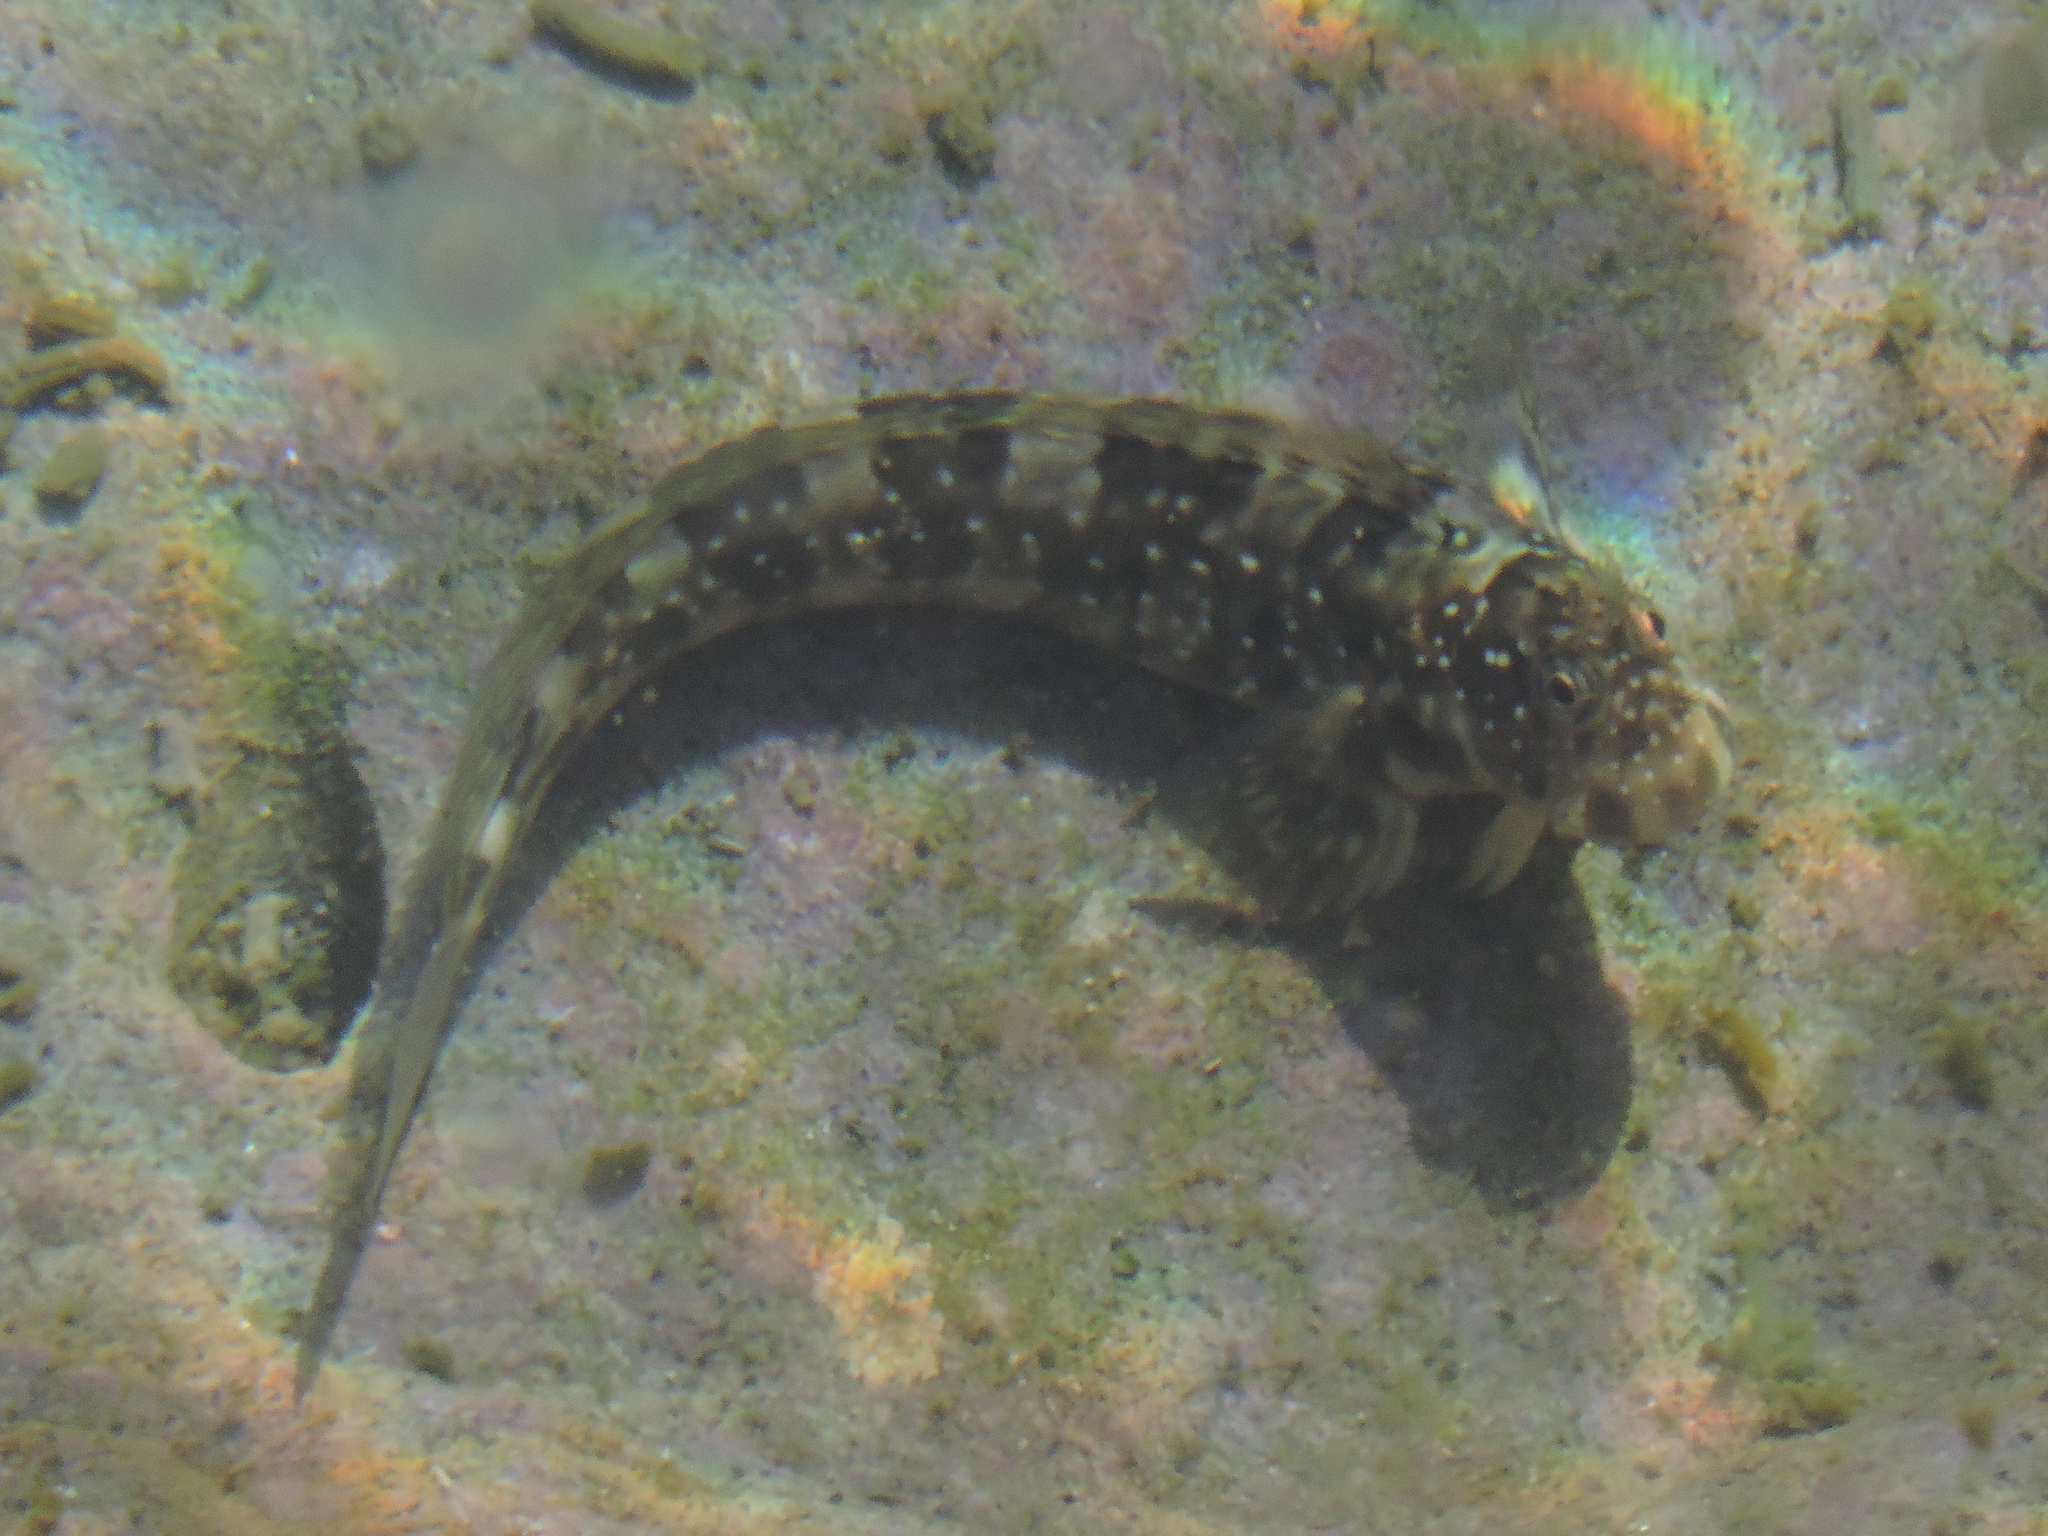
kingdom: Animalia
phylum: Chordata
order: Perciformes
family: Blenniidae
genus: Istiblennius
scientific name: Istiblennius meleagris
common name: Peacock rockskipper
